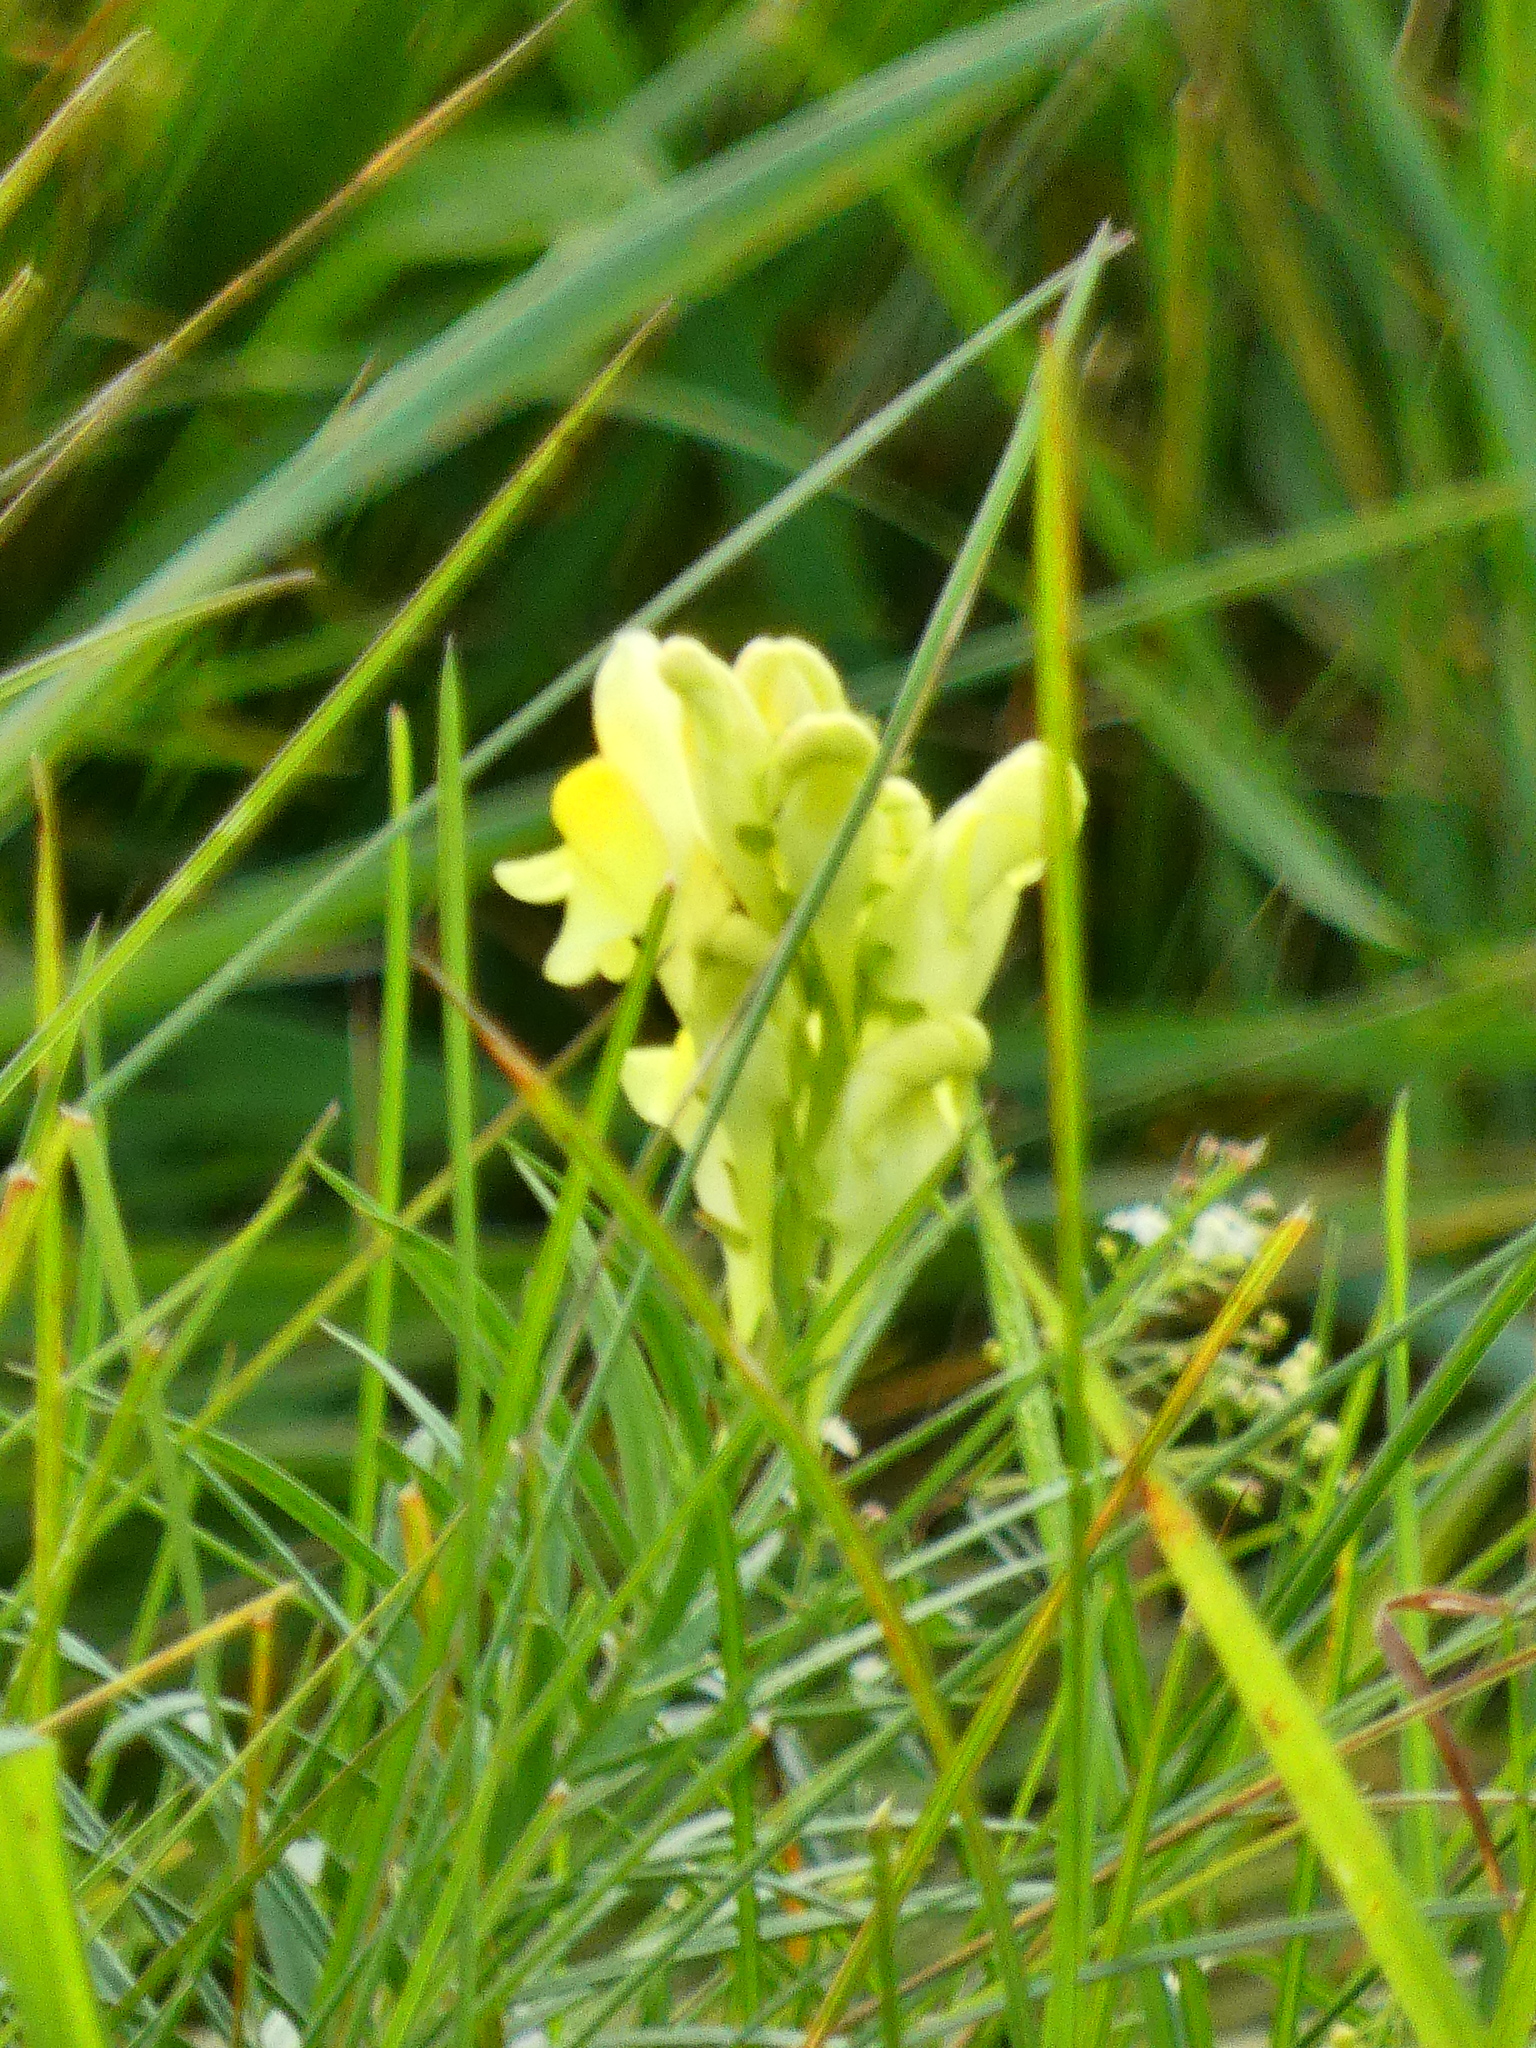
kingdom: Plantae
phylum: Tracheophyta
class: Magnoliopsida
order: Lamiales
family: Plantaginaceae
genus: Linaria
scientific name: Linaria vulgaris
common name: Butter and eggs
